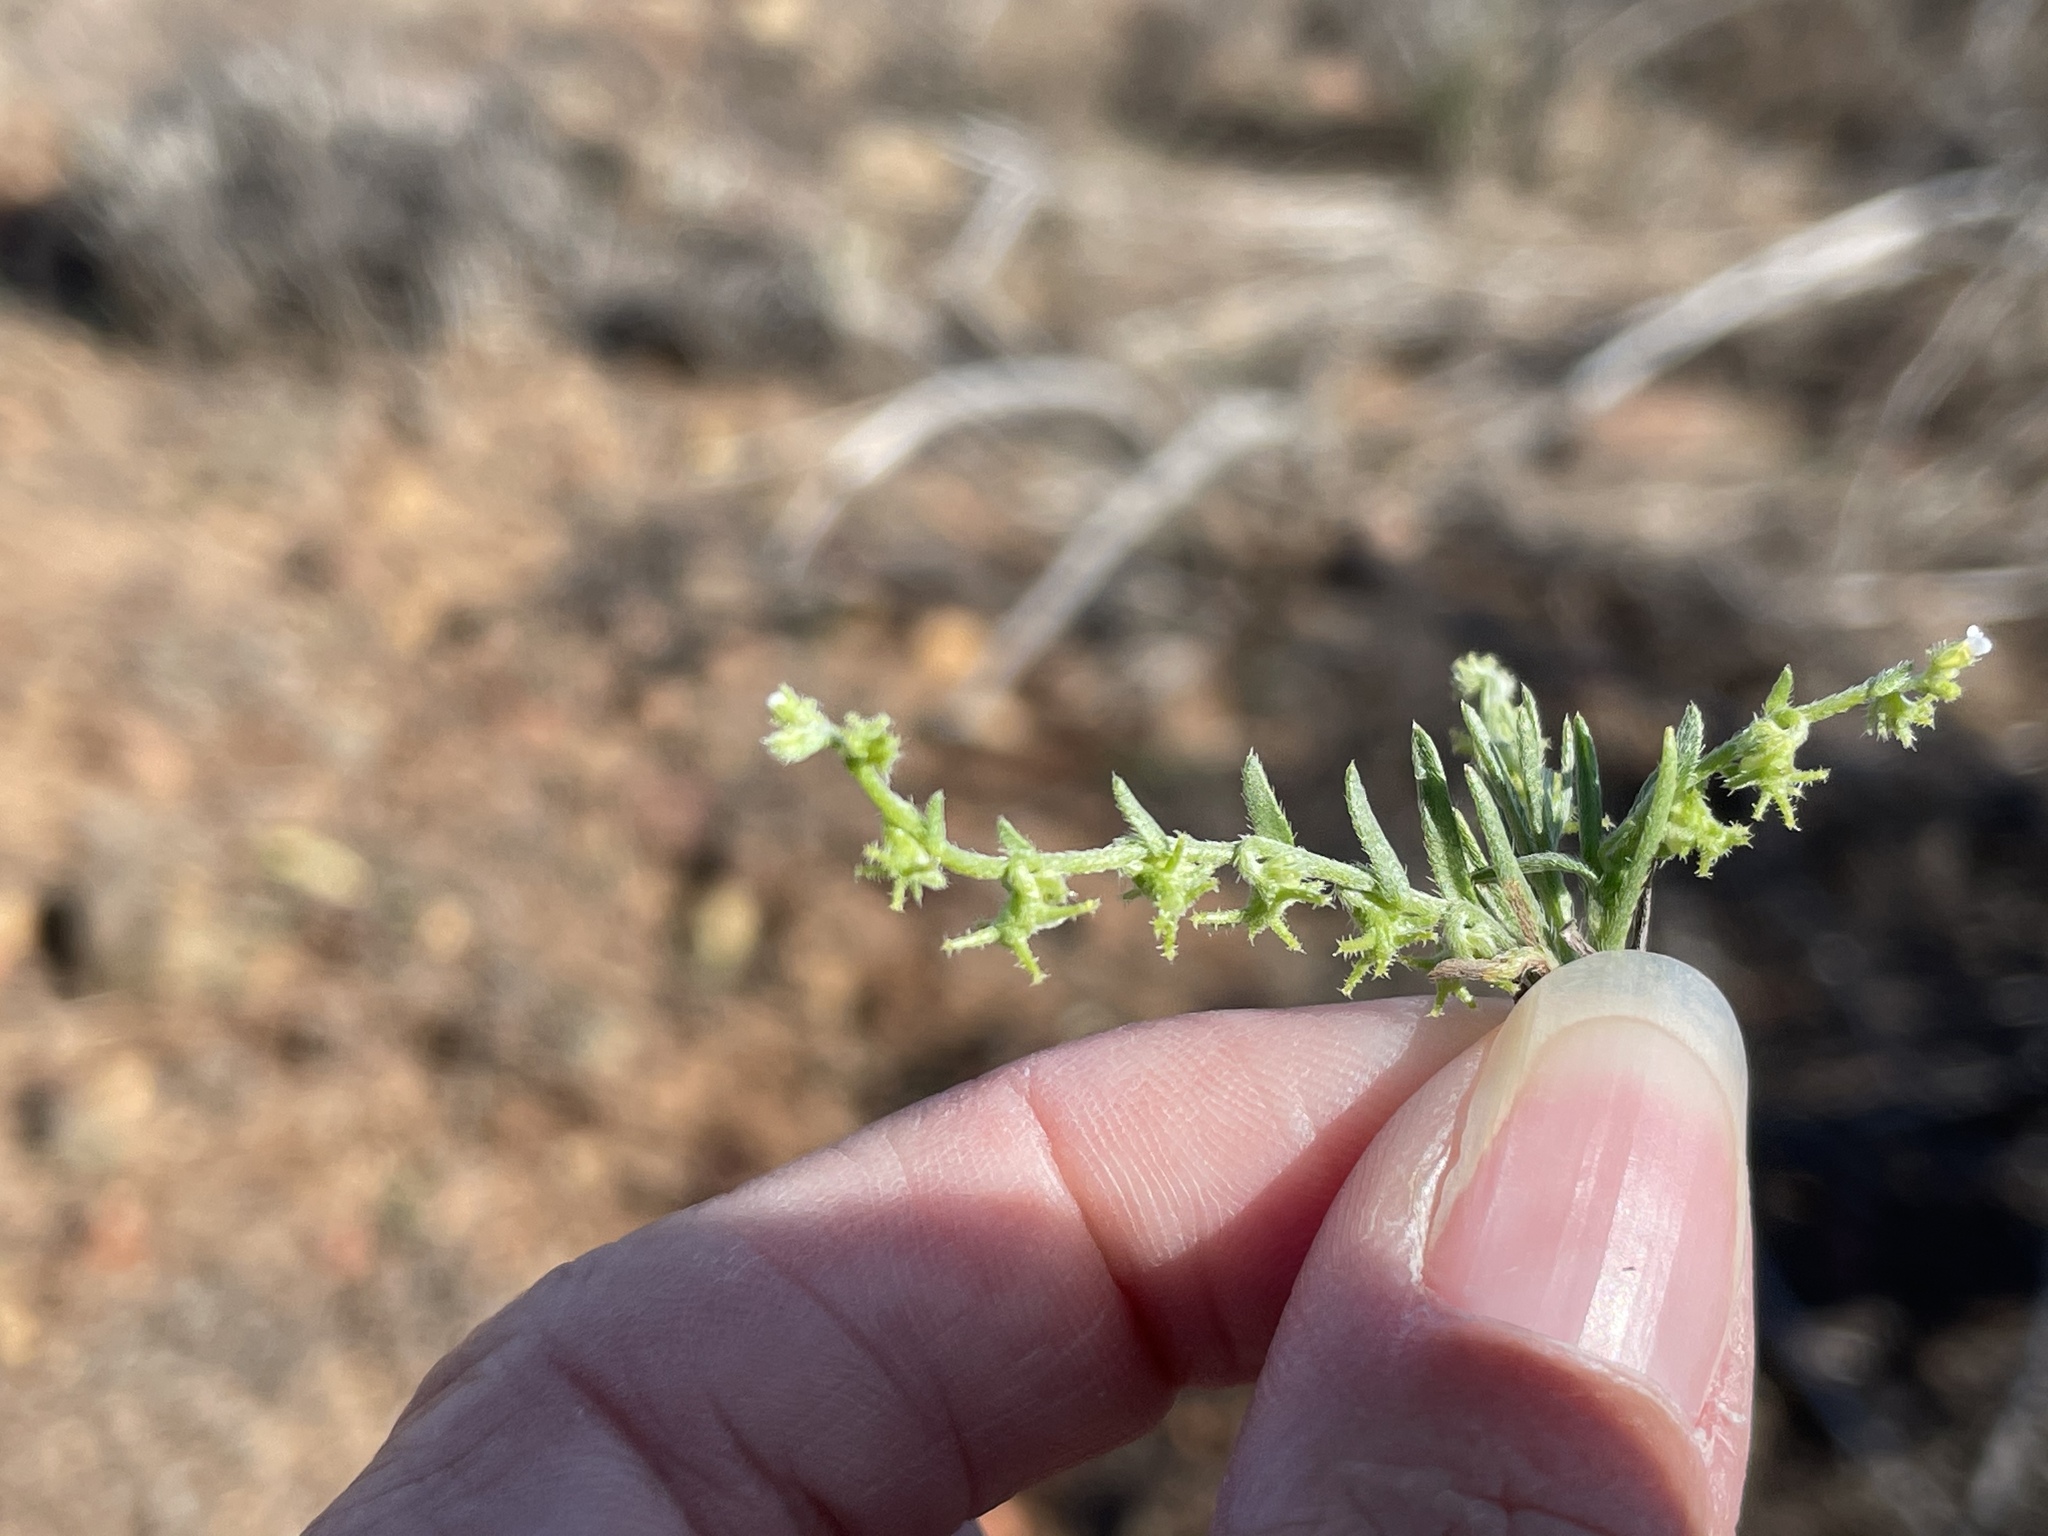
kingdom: Plantae
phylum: Tracheophyta
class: Magnoliopsida
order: Boraginales
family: Boraginaceae
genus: Harpagonella
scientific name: Harpagonella palmeri
